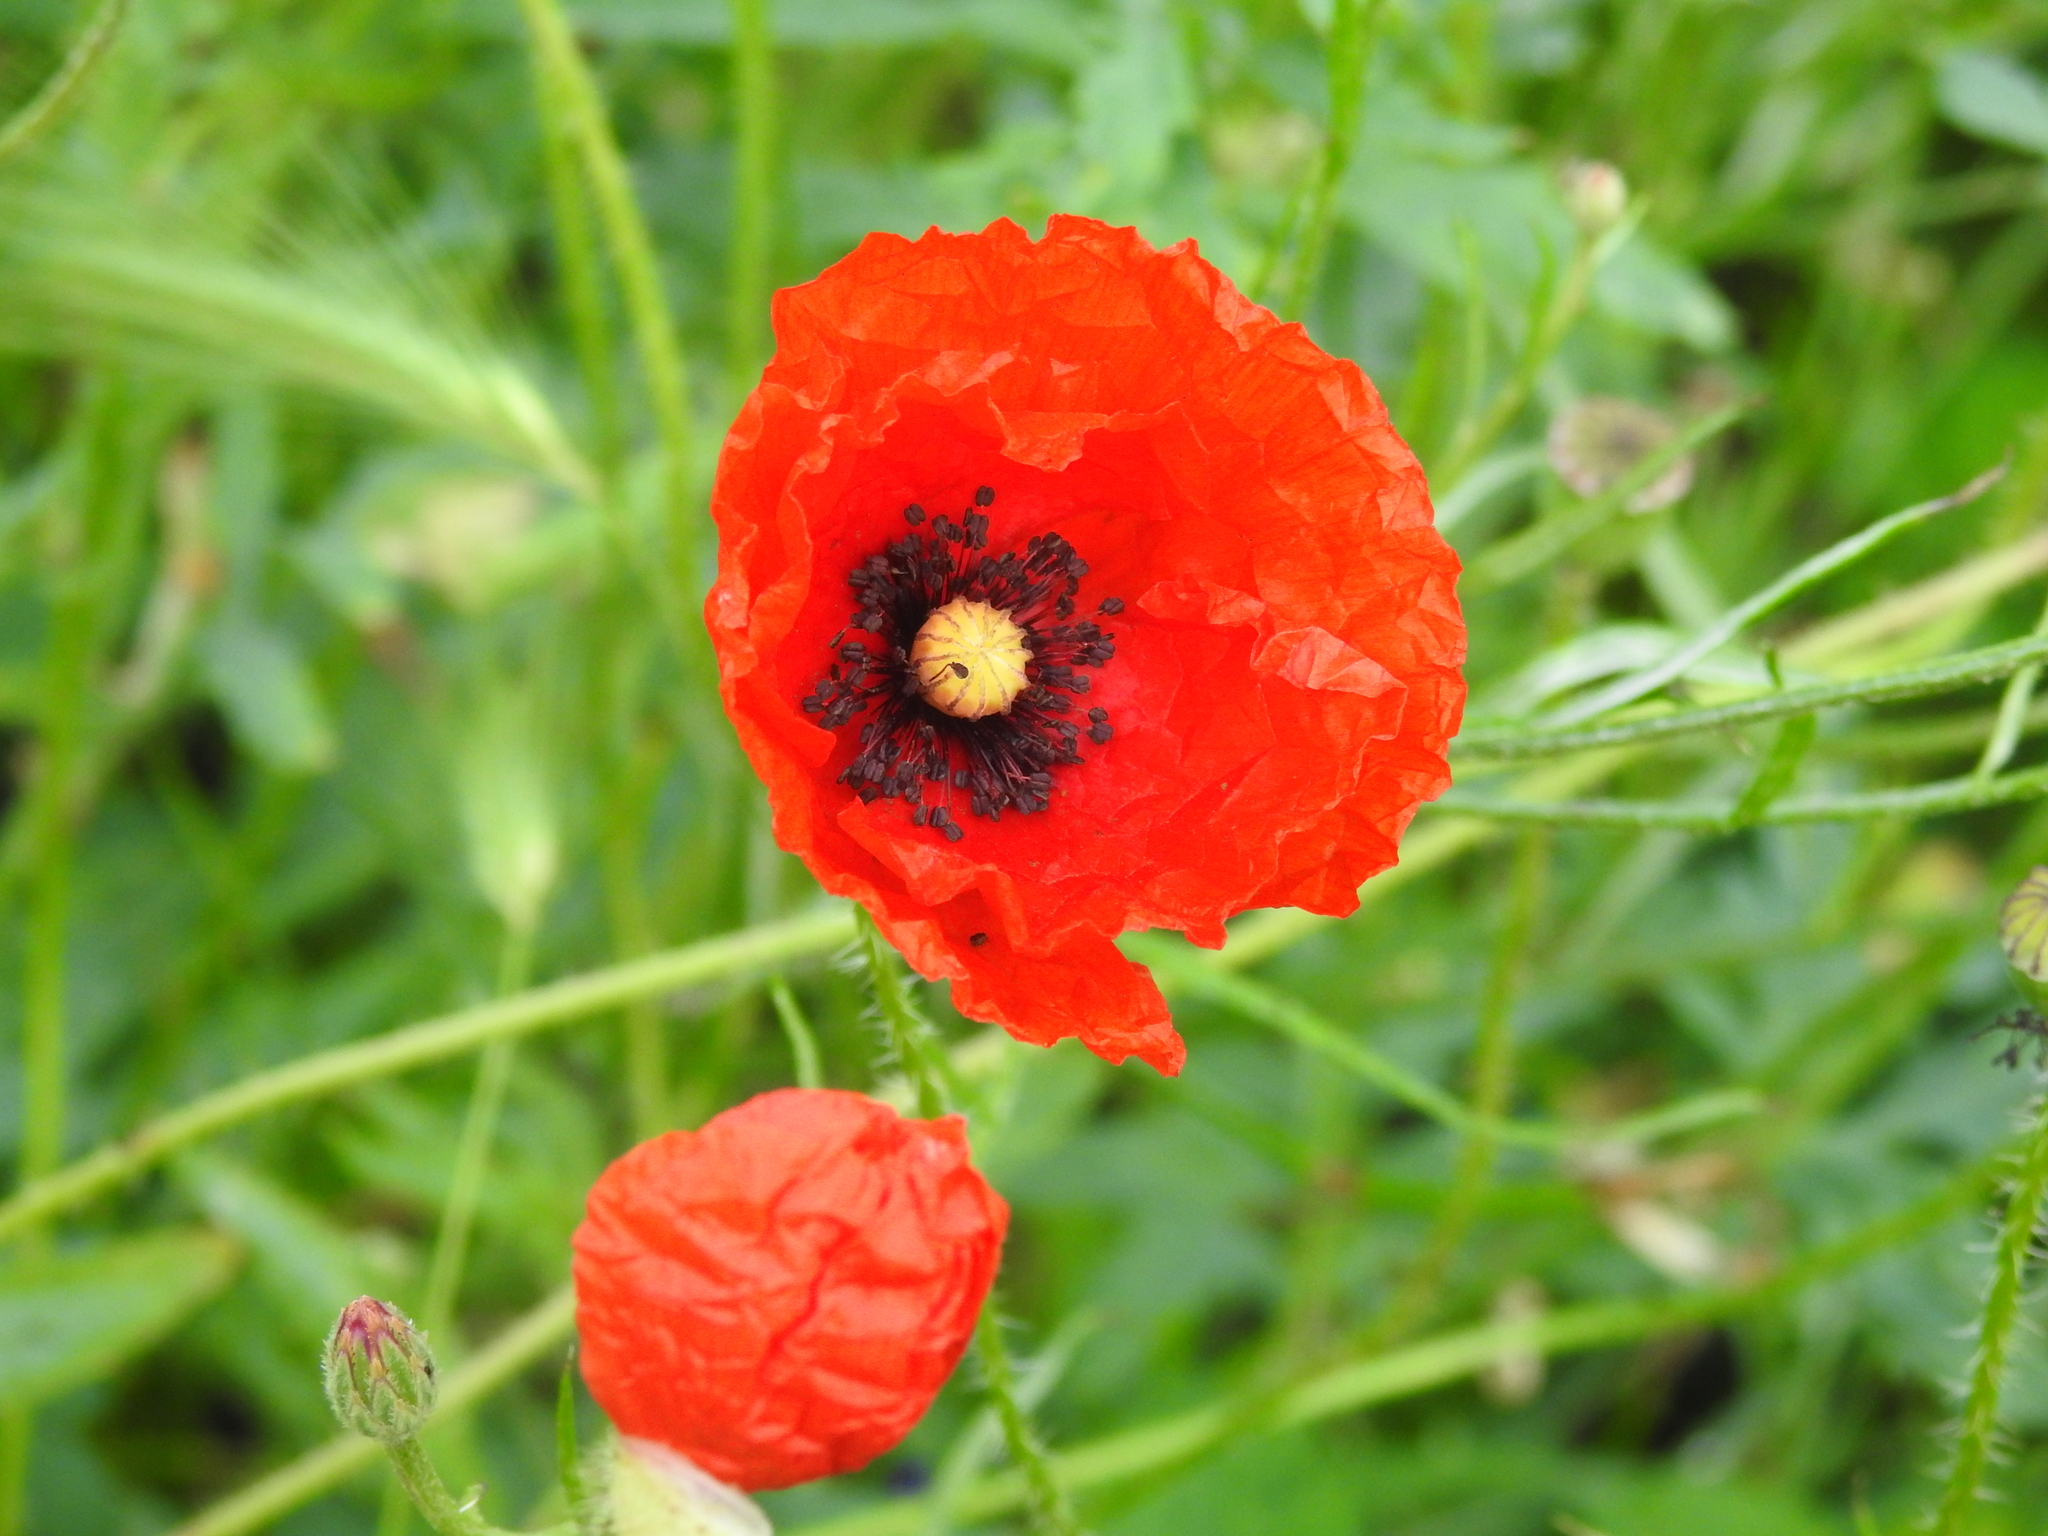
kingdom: Plantae
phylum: Tracheophyta
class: Magnoliopsida
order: Ranunculales
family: Papaveraceae
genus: Papaver
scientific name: Papaver rhoeas
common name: Corn poppy
